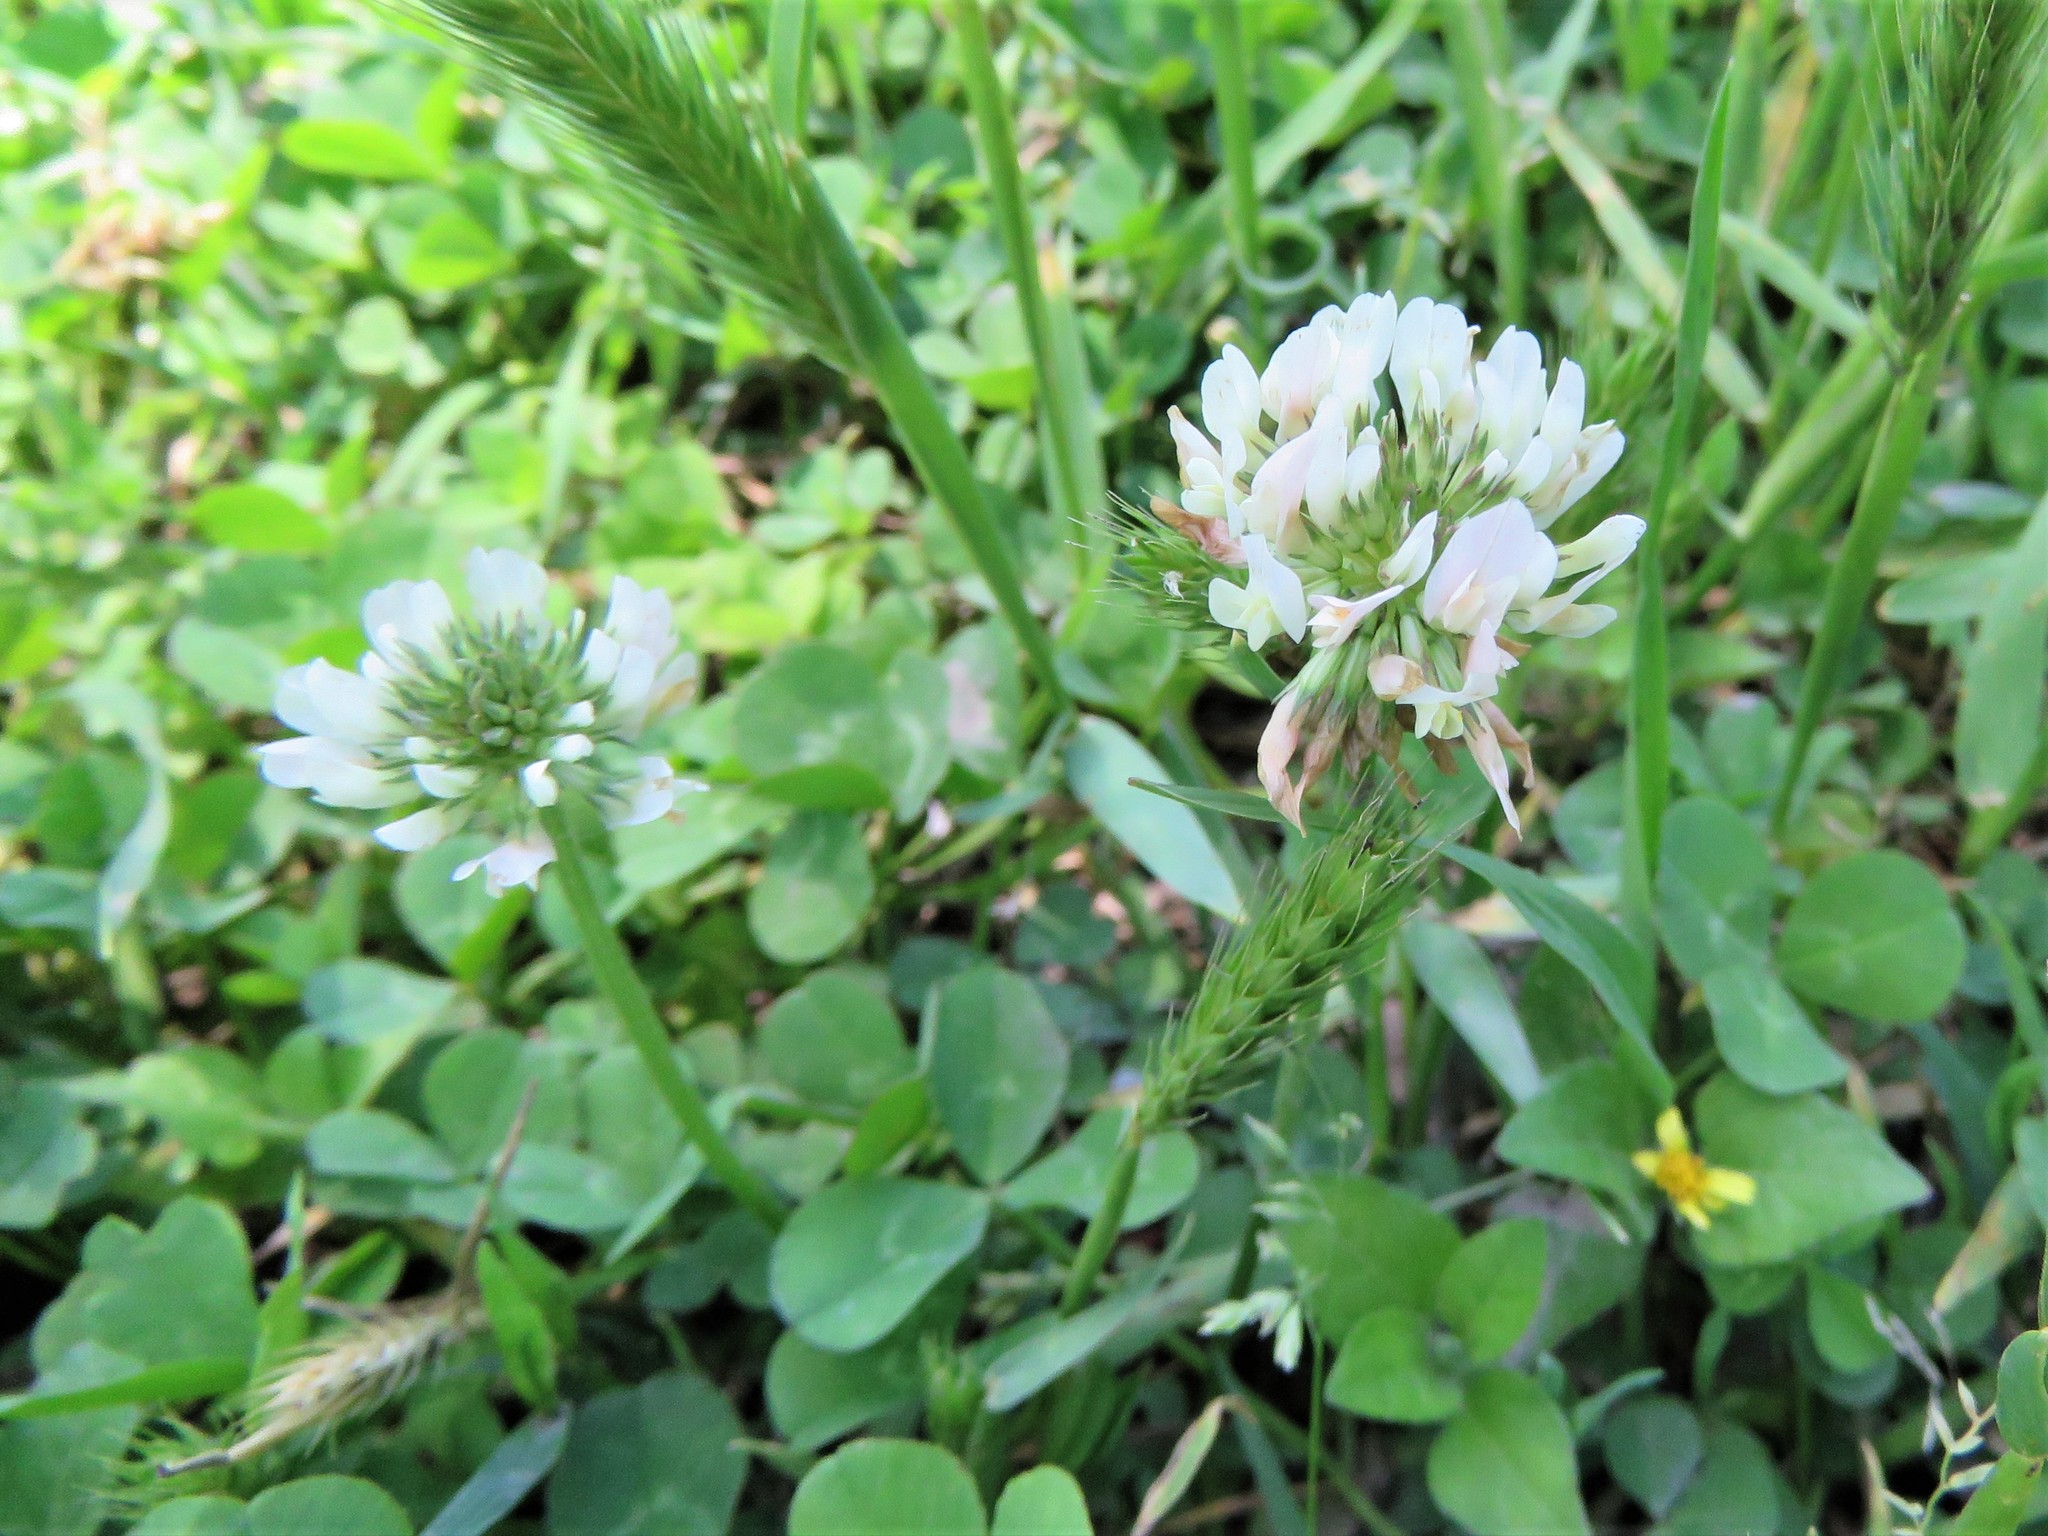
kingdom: Plantae
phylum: Tracheophyta
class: Magnoliopsida
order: Fabales
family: Fabaceae
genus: Trifolium
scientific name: Trifolium repens
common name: White clover
